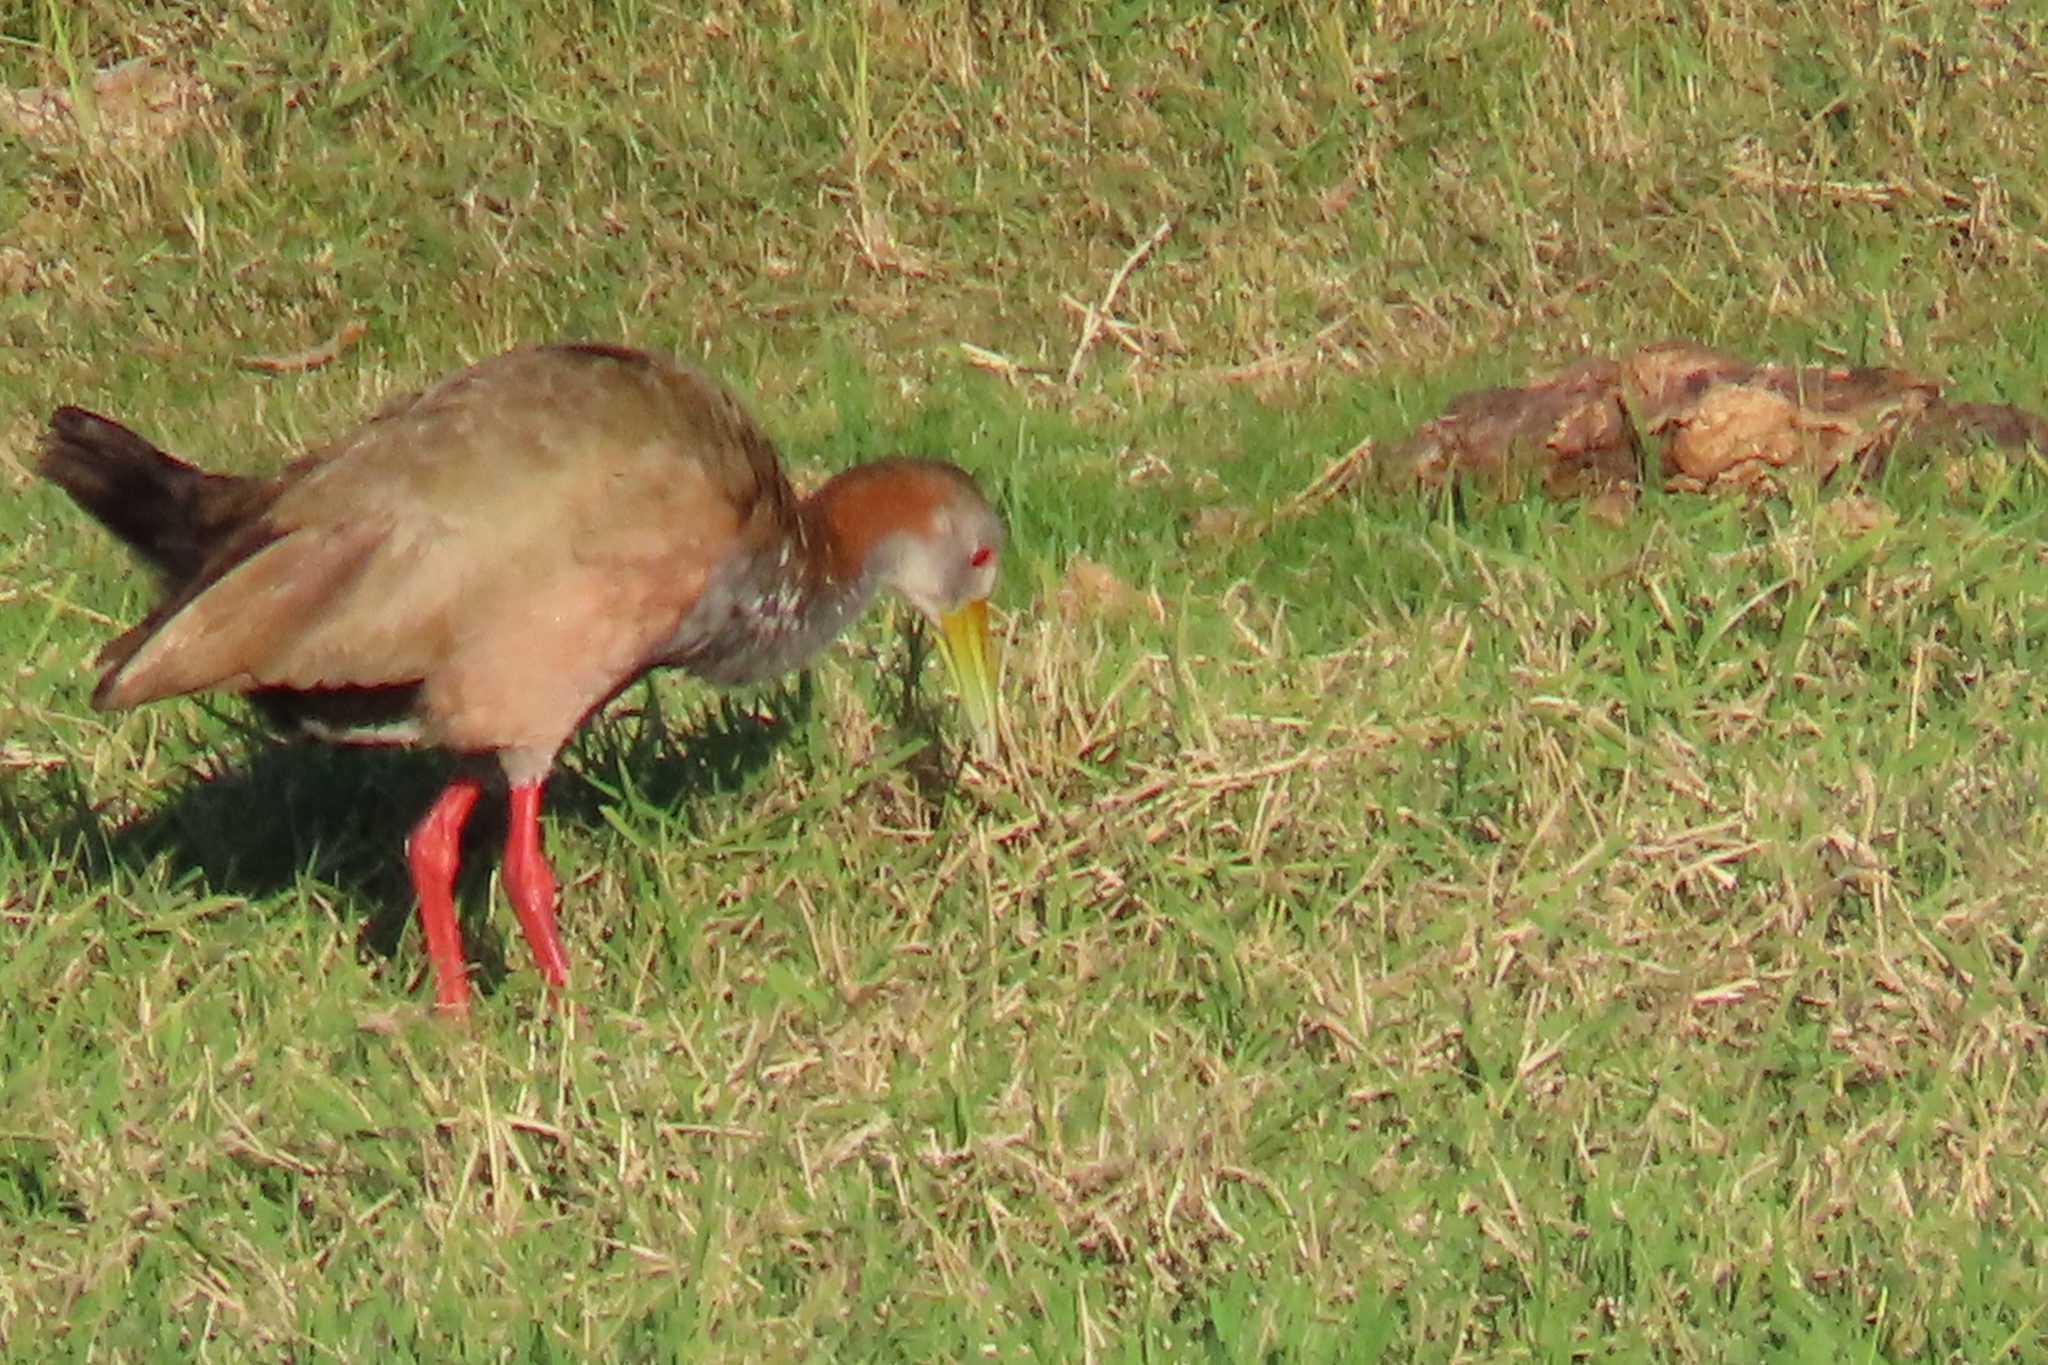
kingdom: Animalia
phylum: Chordata
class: Aves
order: Gruiformes
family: Rallidae
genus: Aramides
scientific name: Aramides ypecaha
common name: Giant wood rail
